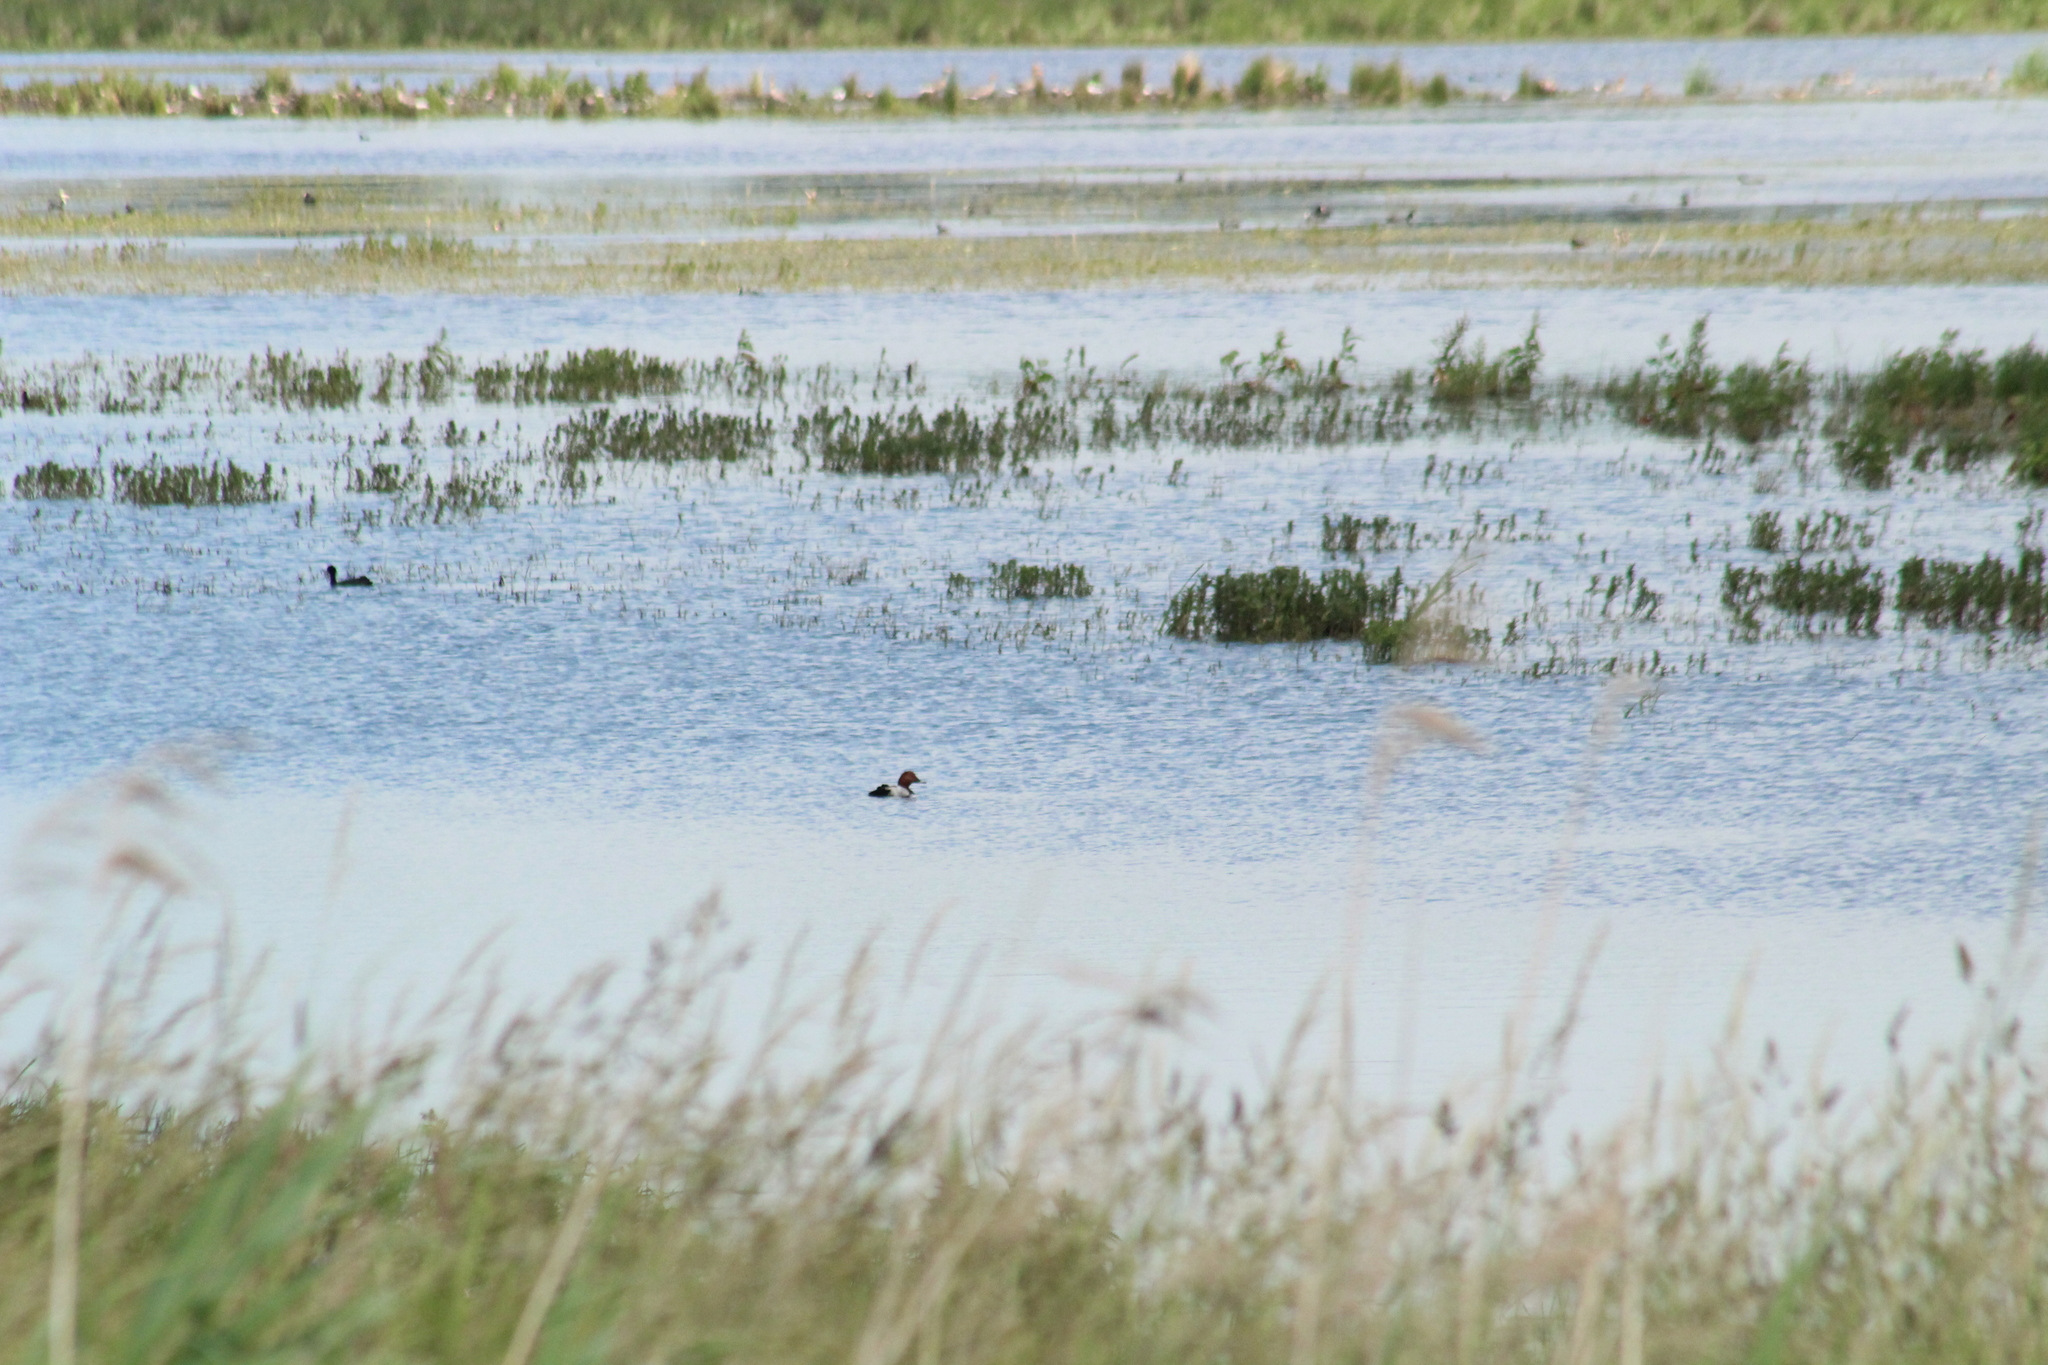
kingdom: Animalia
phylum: Chordata
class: Aves
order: Anseriformes
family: Anatidae
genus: Aythya
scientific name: Aythya ferina
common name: Common pochard
